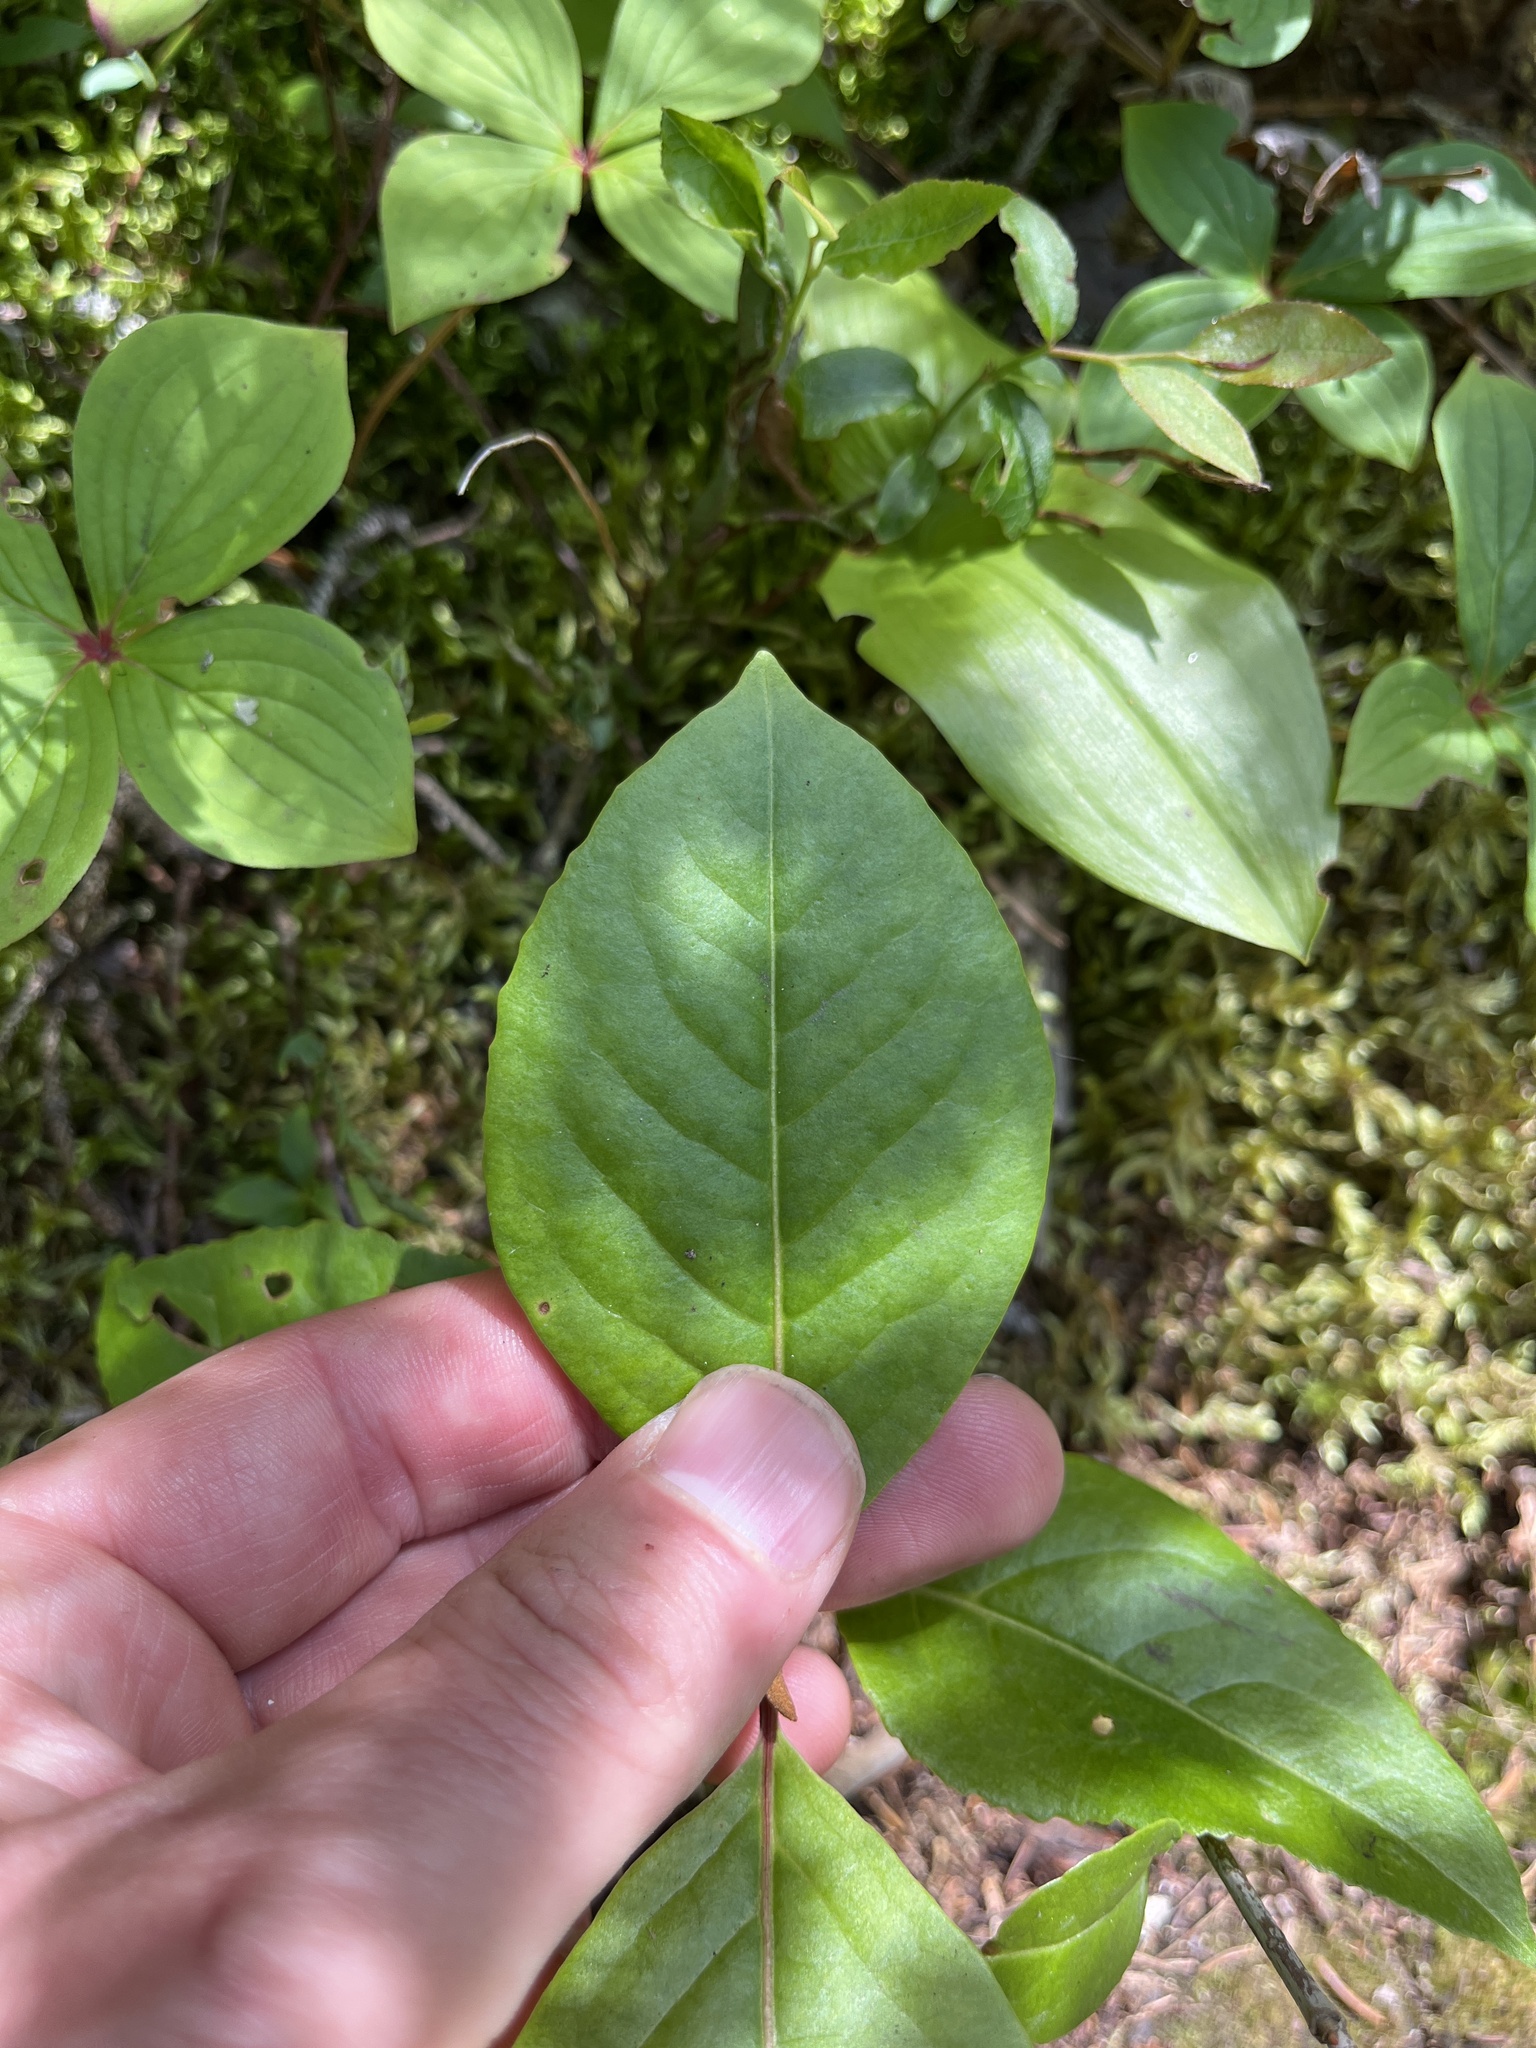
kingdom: Plantae
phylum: Tracheophyta
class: Magnoliopsida
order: Dipsacales
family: Viburnaceae
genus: Viburnum
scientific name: Viburnum cassinoides
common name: Swamp haw
